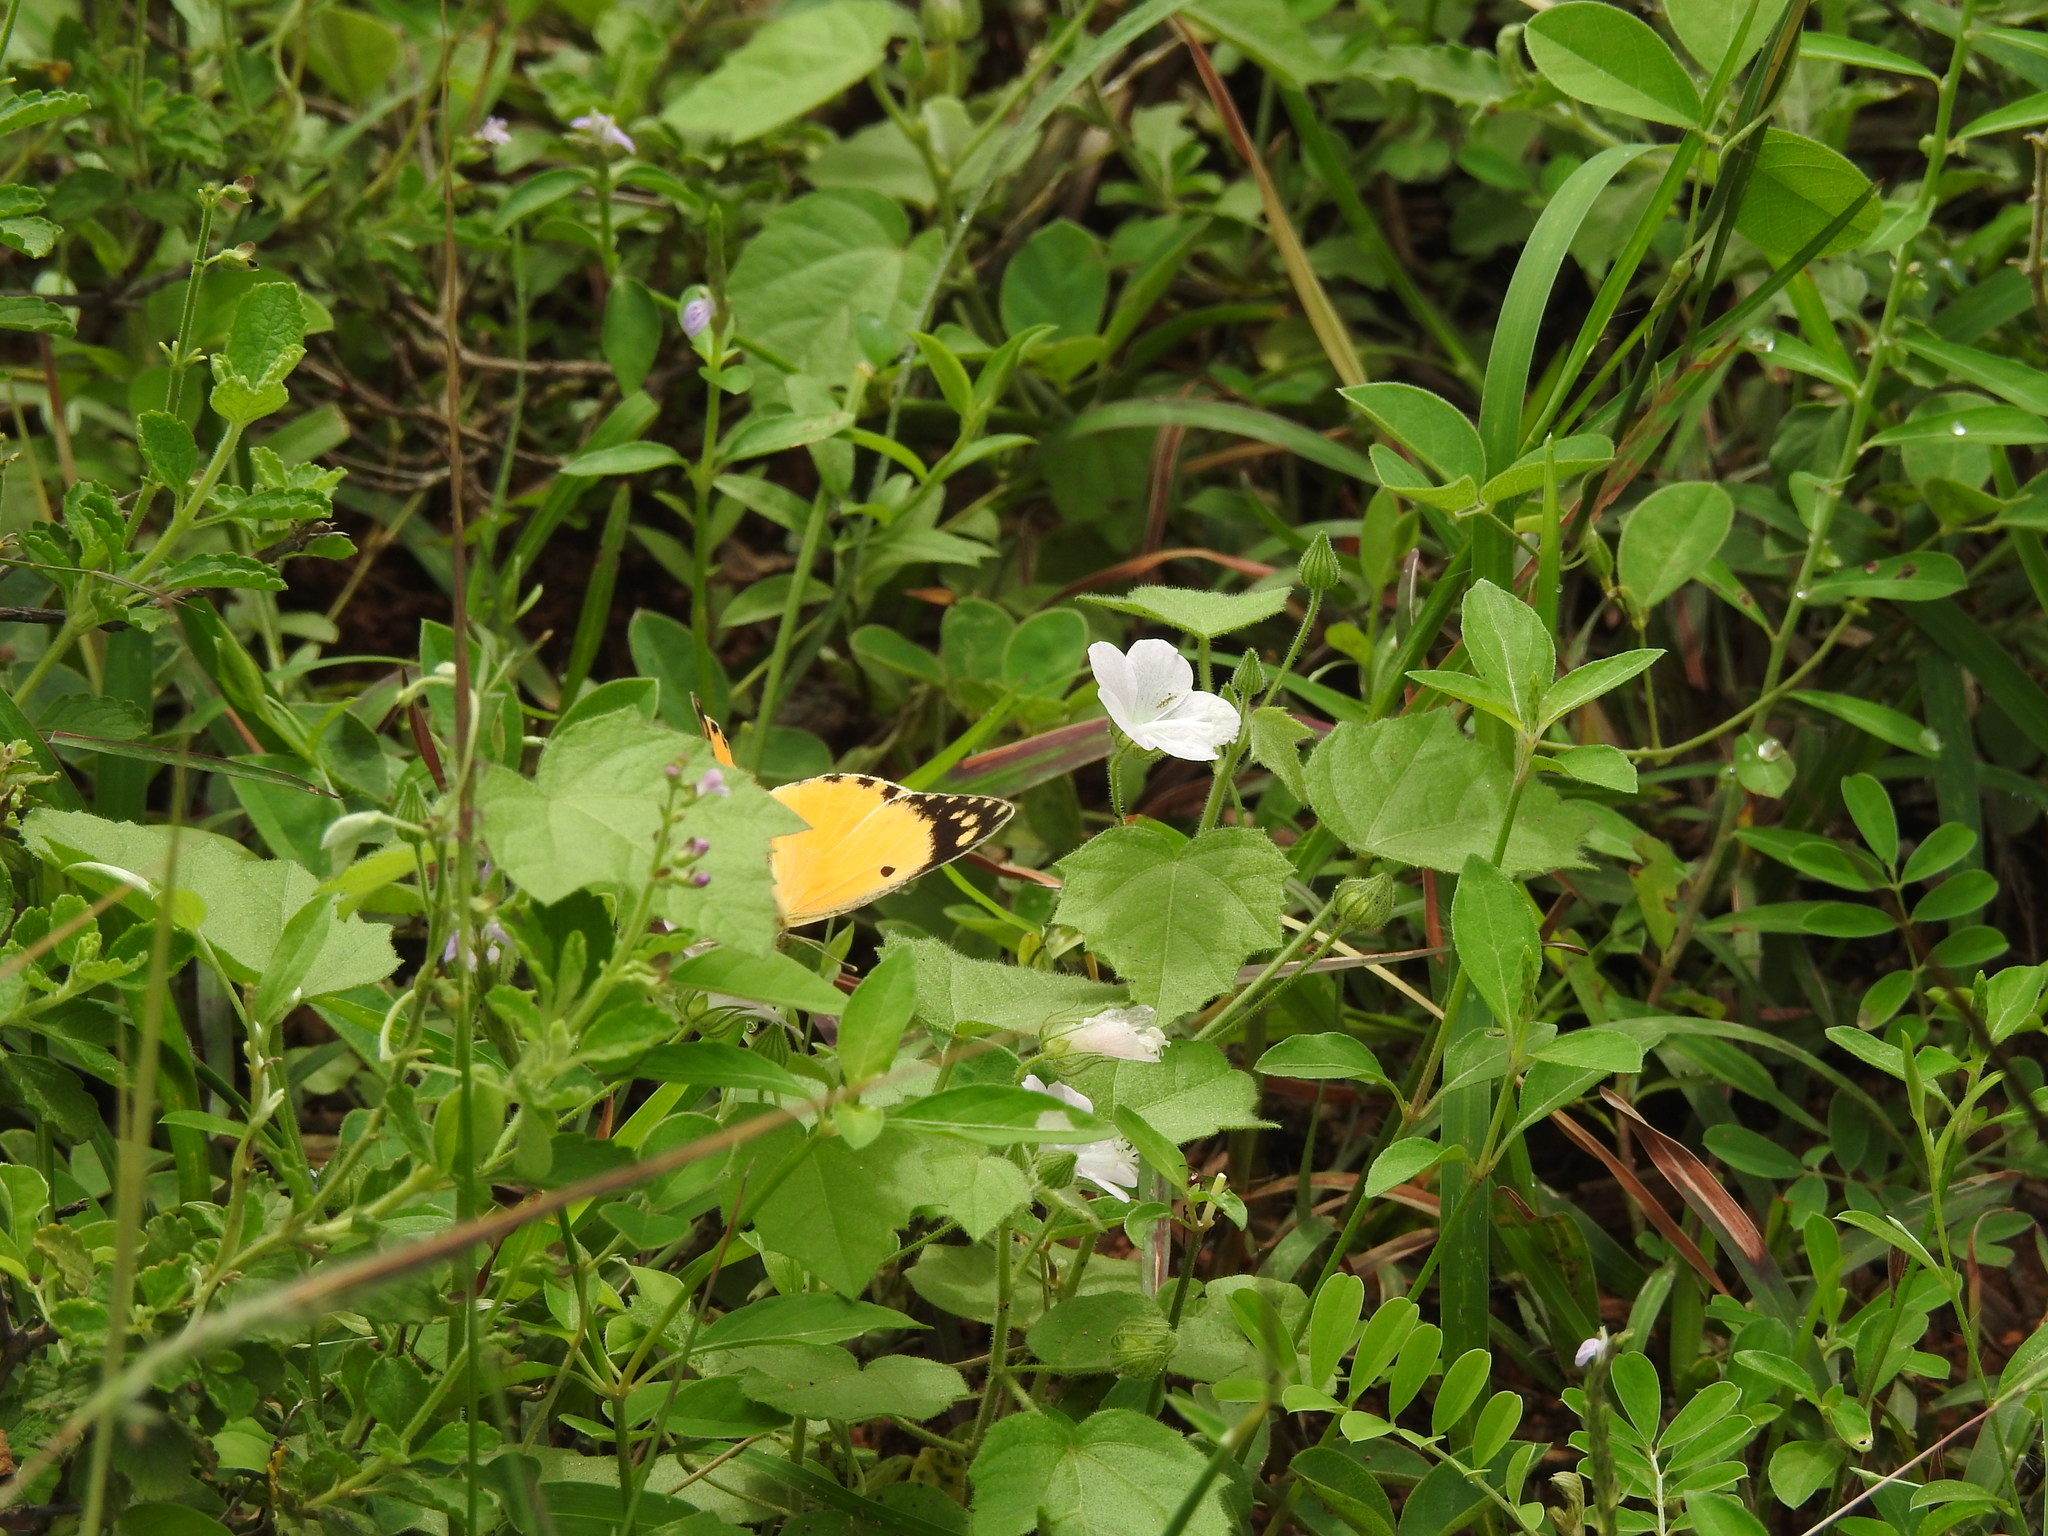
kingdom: Animalia
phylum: Arthropoda
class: Insecta
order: Lepidoptera
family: Pieridae
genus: Colotis
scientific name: Colotis fausta
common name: Large salmon arab
